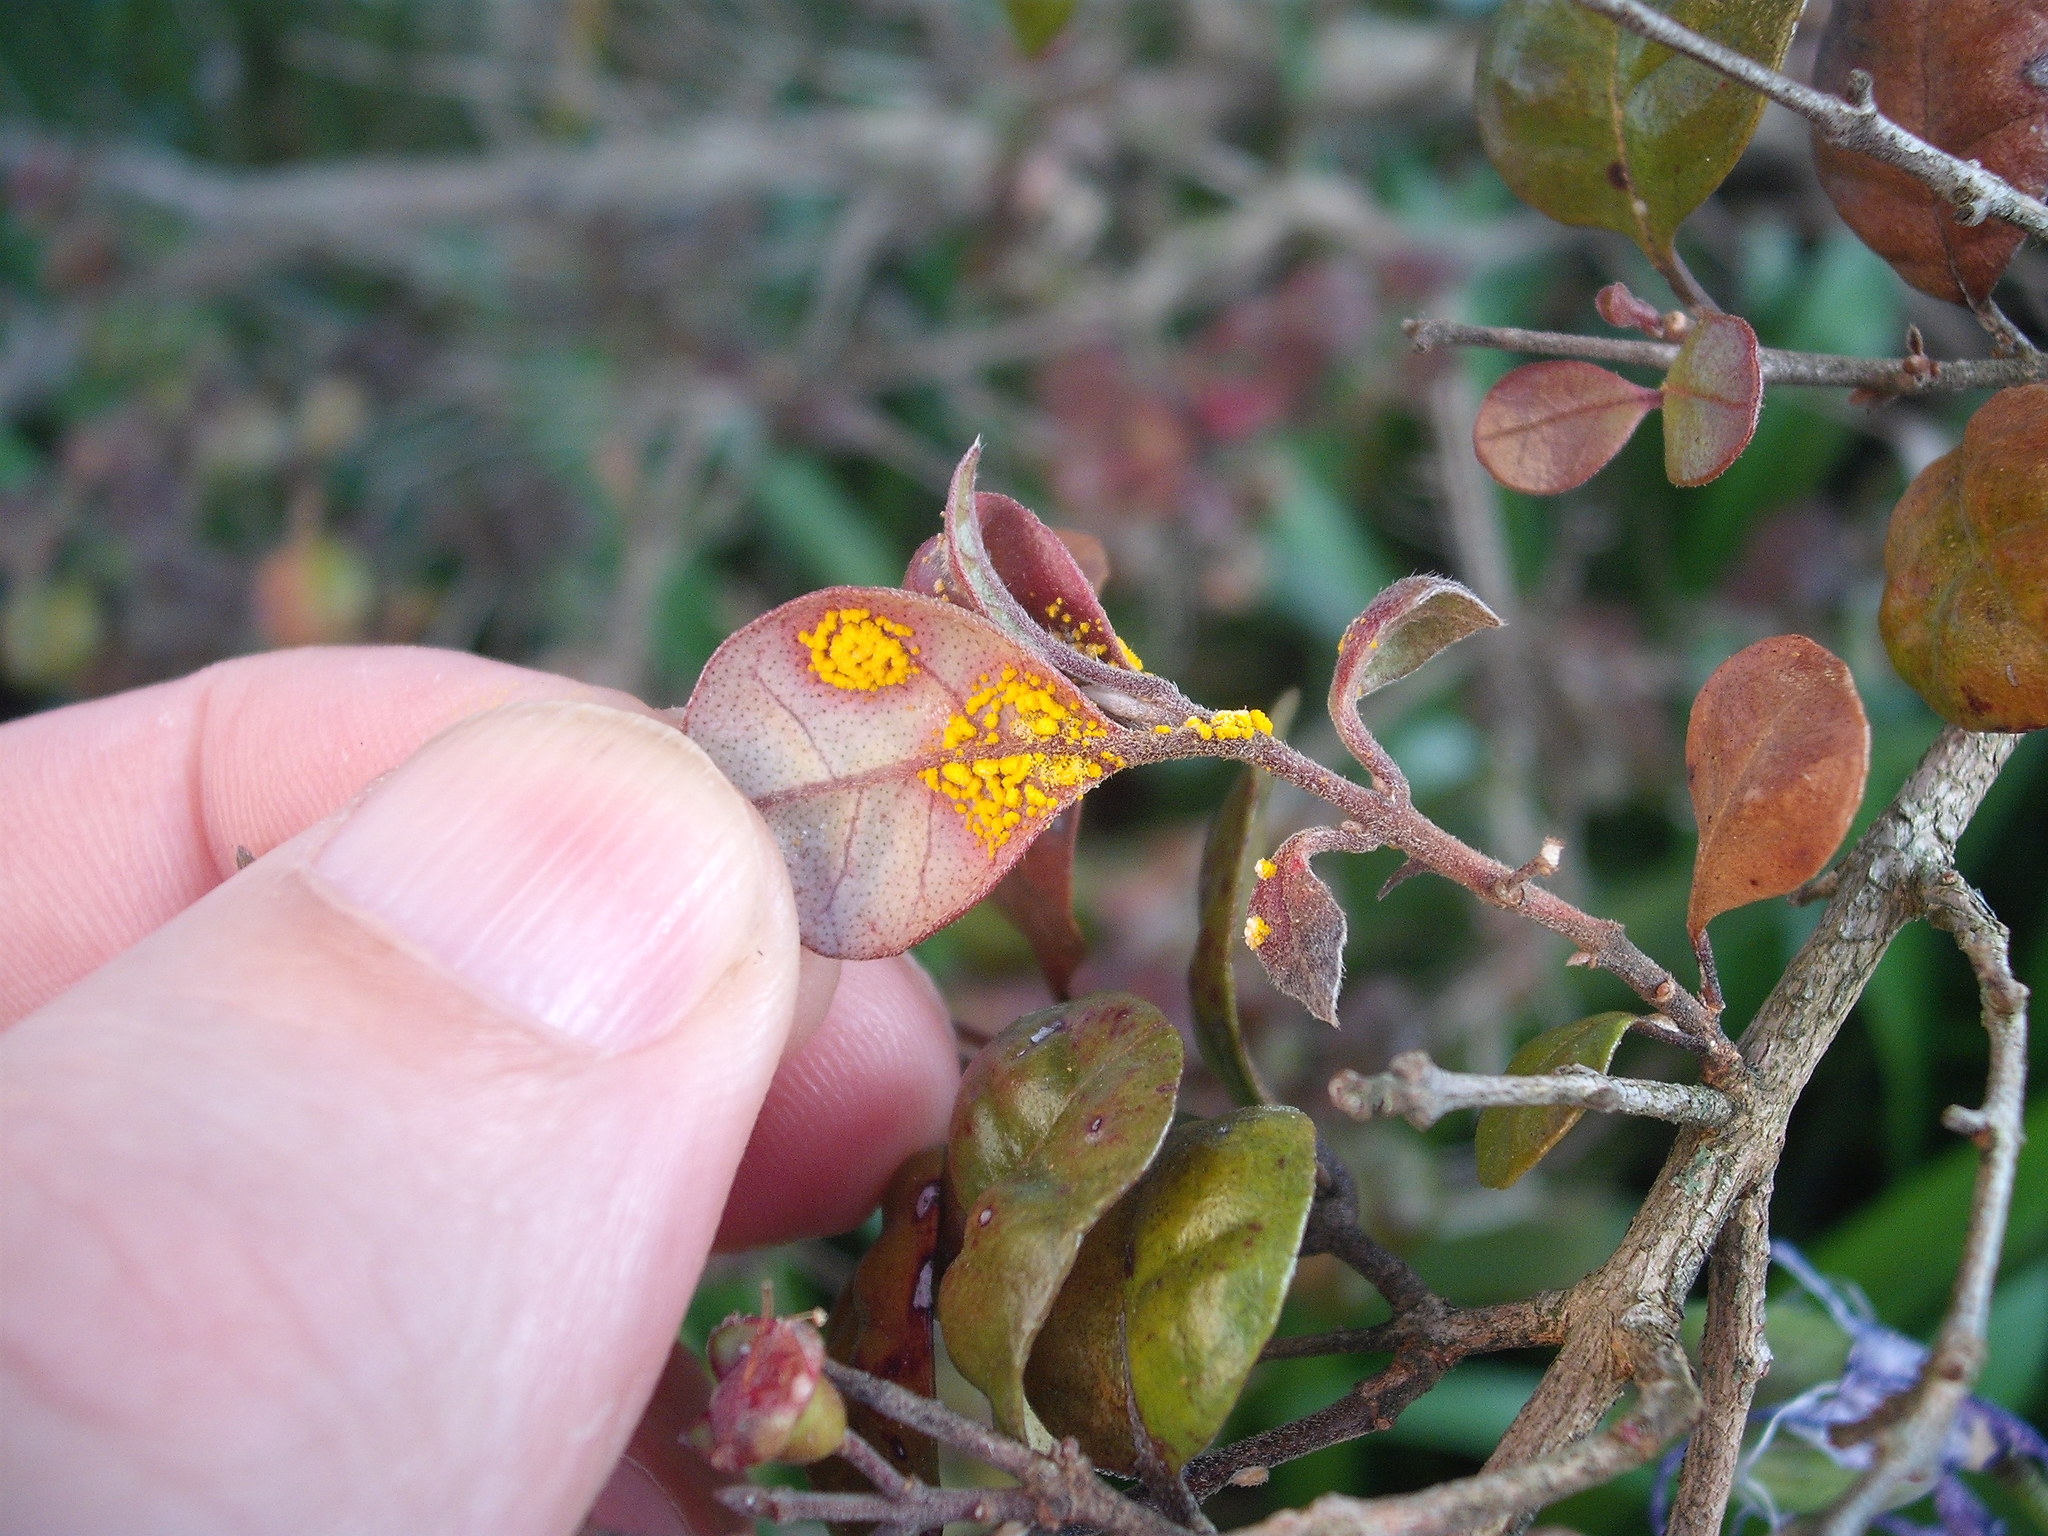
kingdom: Fungi
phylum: Basidiomycota
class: Pucciniomycetes
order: Pucciniales
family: Sphaerophragmiaceae
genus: Austropuccinia
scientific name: Austropuccinia psidii
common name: Myrtle rust
